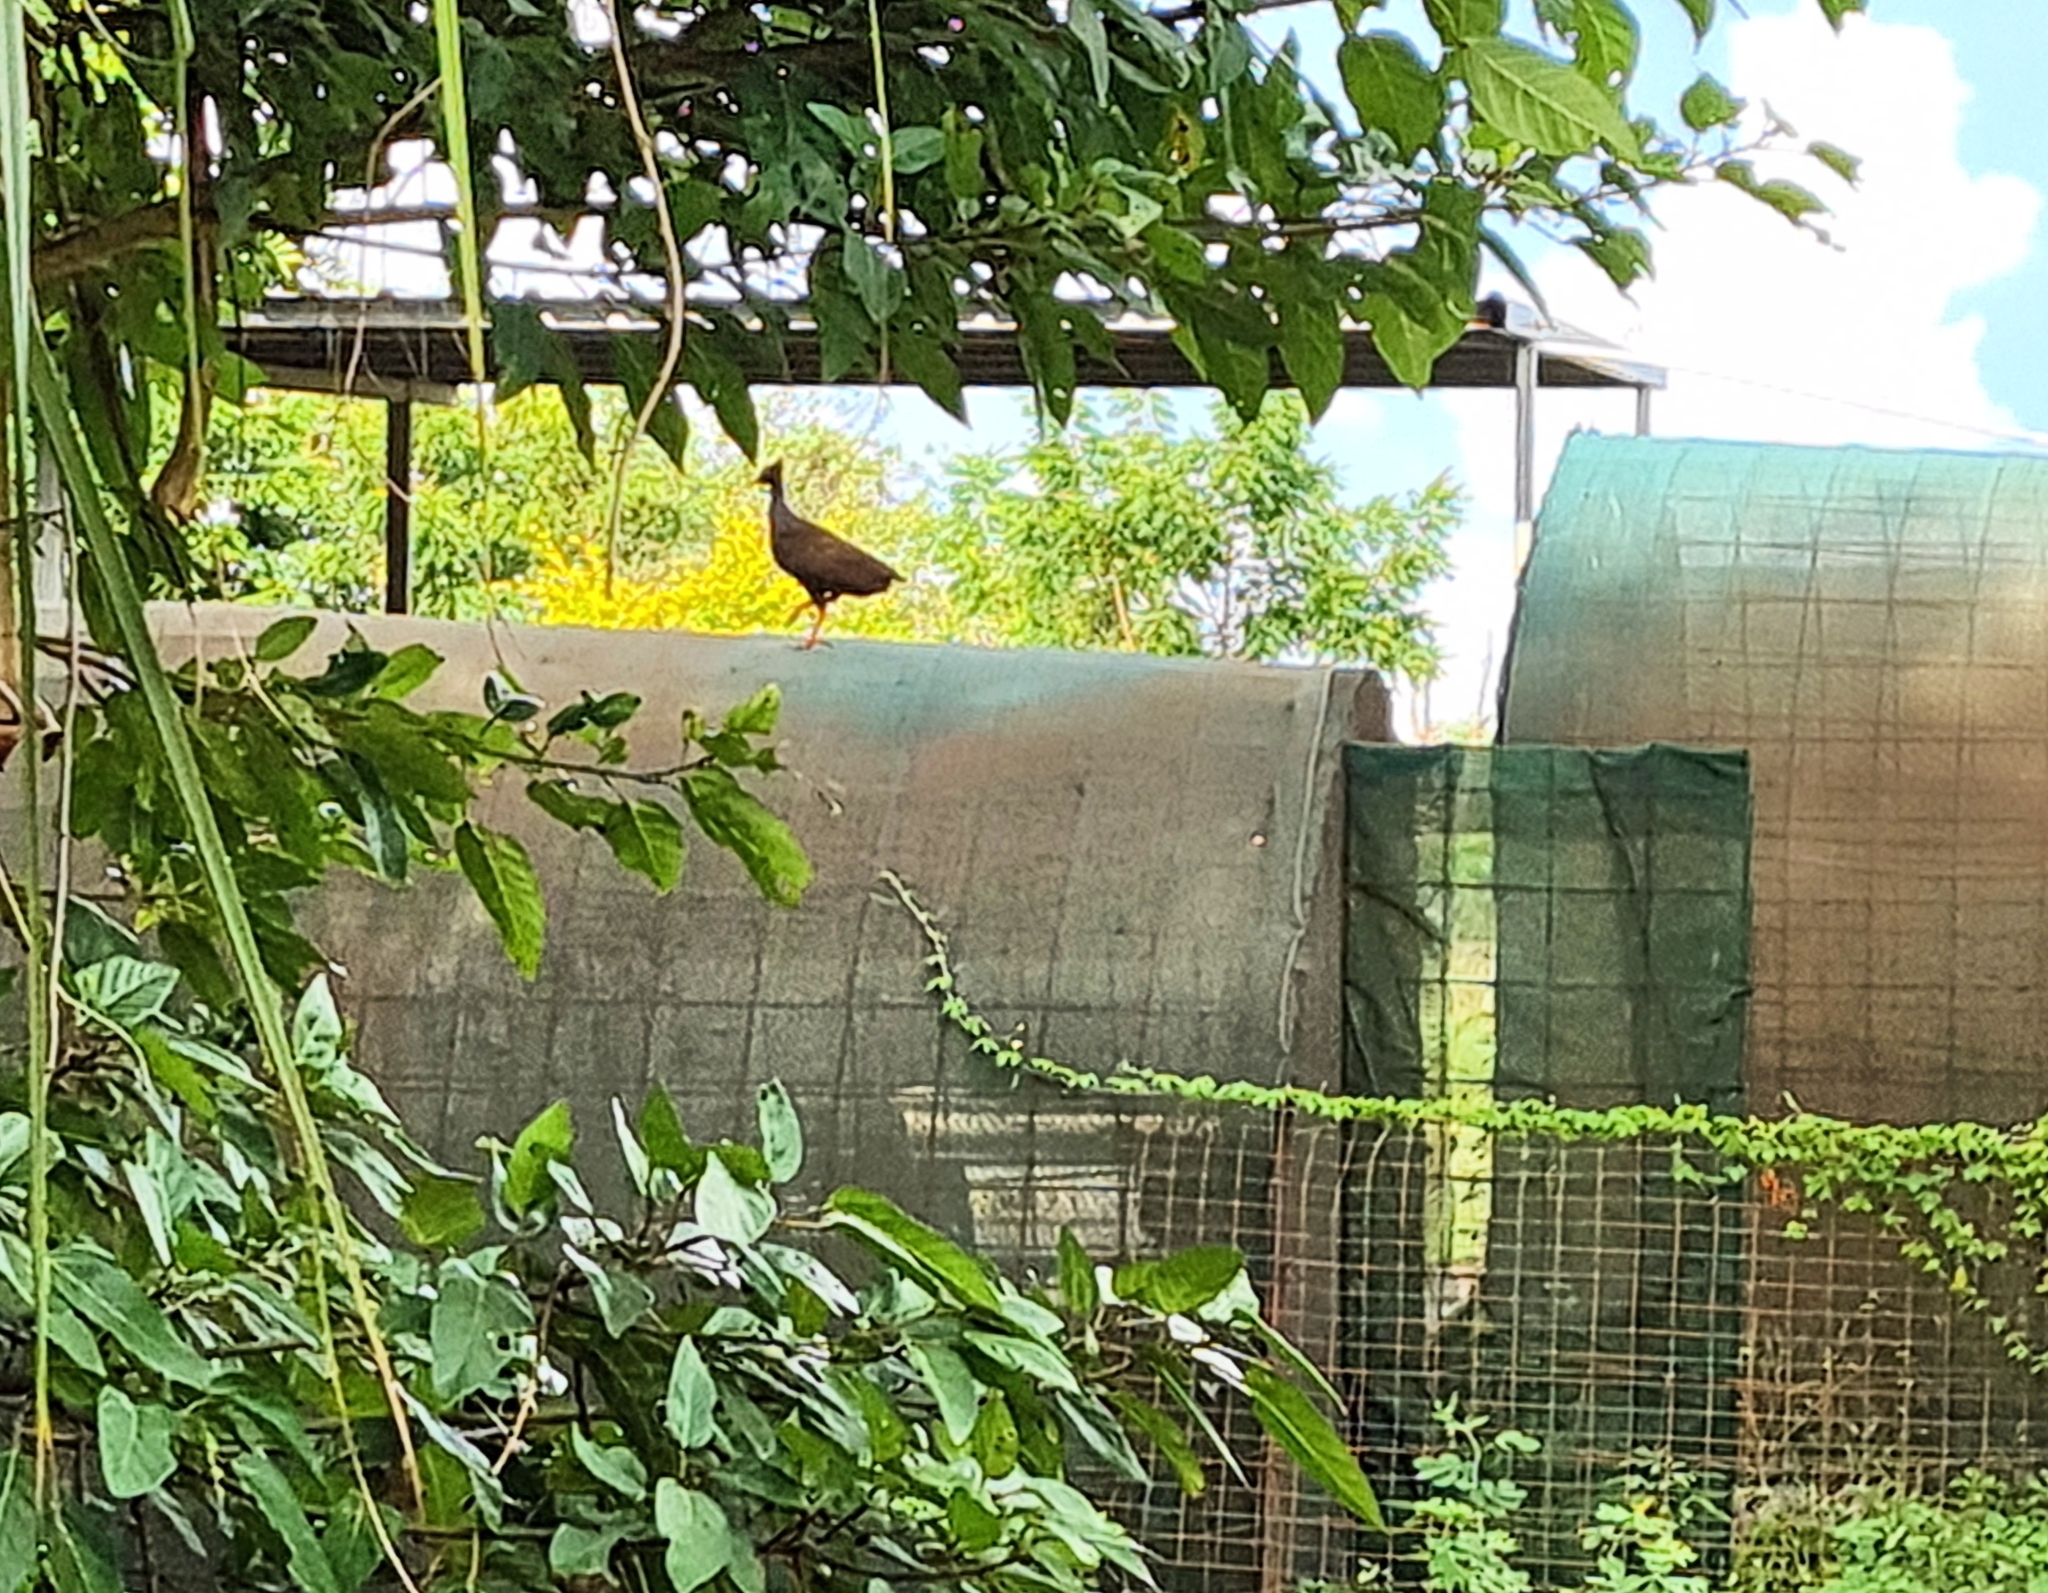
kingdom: Animalia
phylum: Chordata
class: Aves
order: Galliformes
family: Megapodiidae
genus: Megapodius
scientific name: Megapodius reinwardt
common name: Orange-footed scrubfowl
